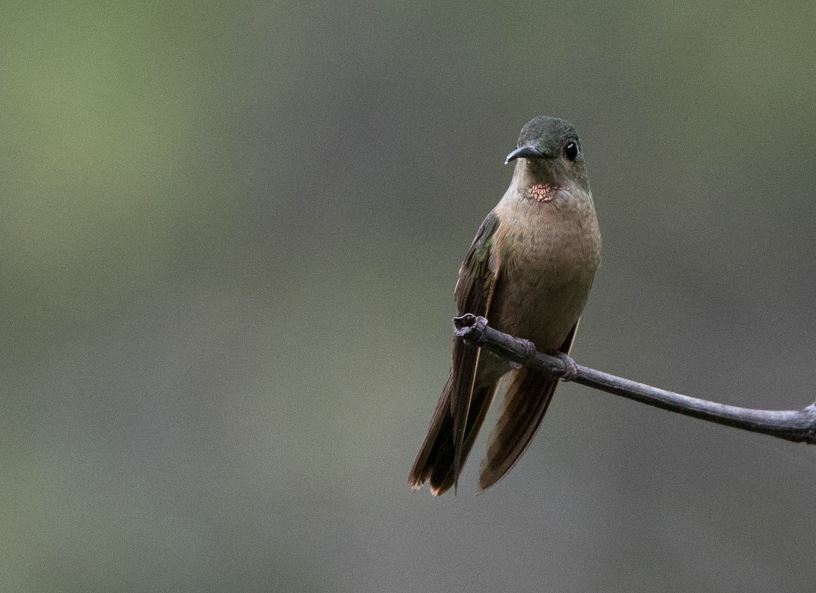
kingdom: Animalia
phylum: Chordata
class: Aves
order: Apodiformes
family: Trochilidae
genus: Heliodoxa
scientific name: Heliodoxa rubinoides
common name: Fawn-breasted brilliant
